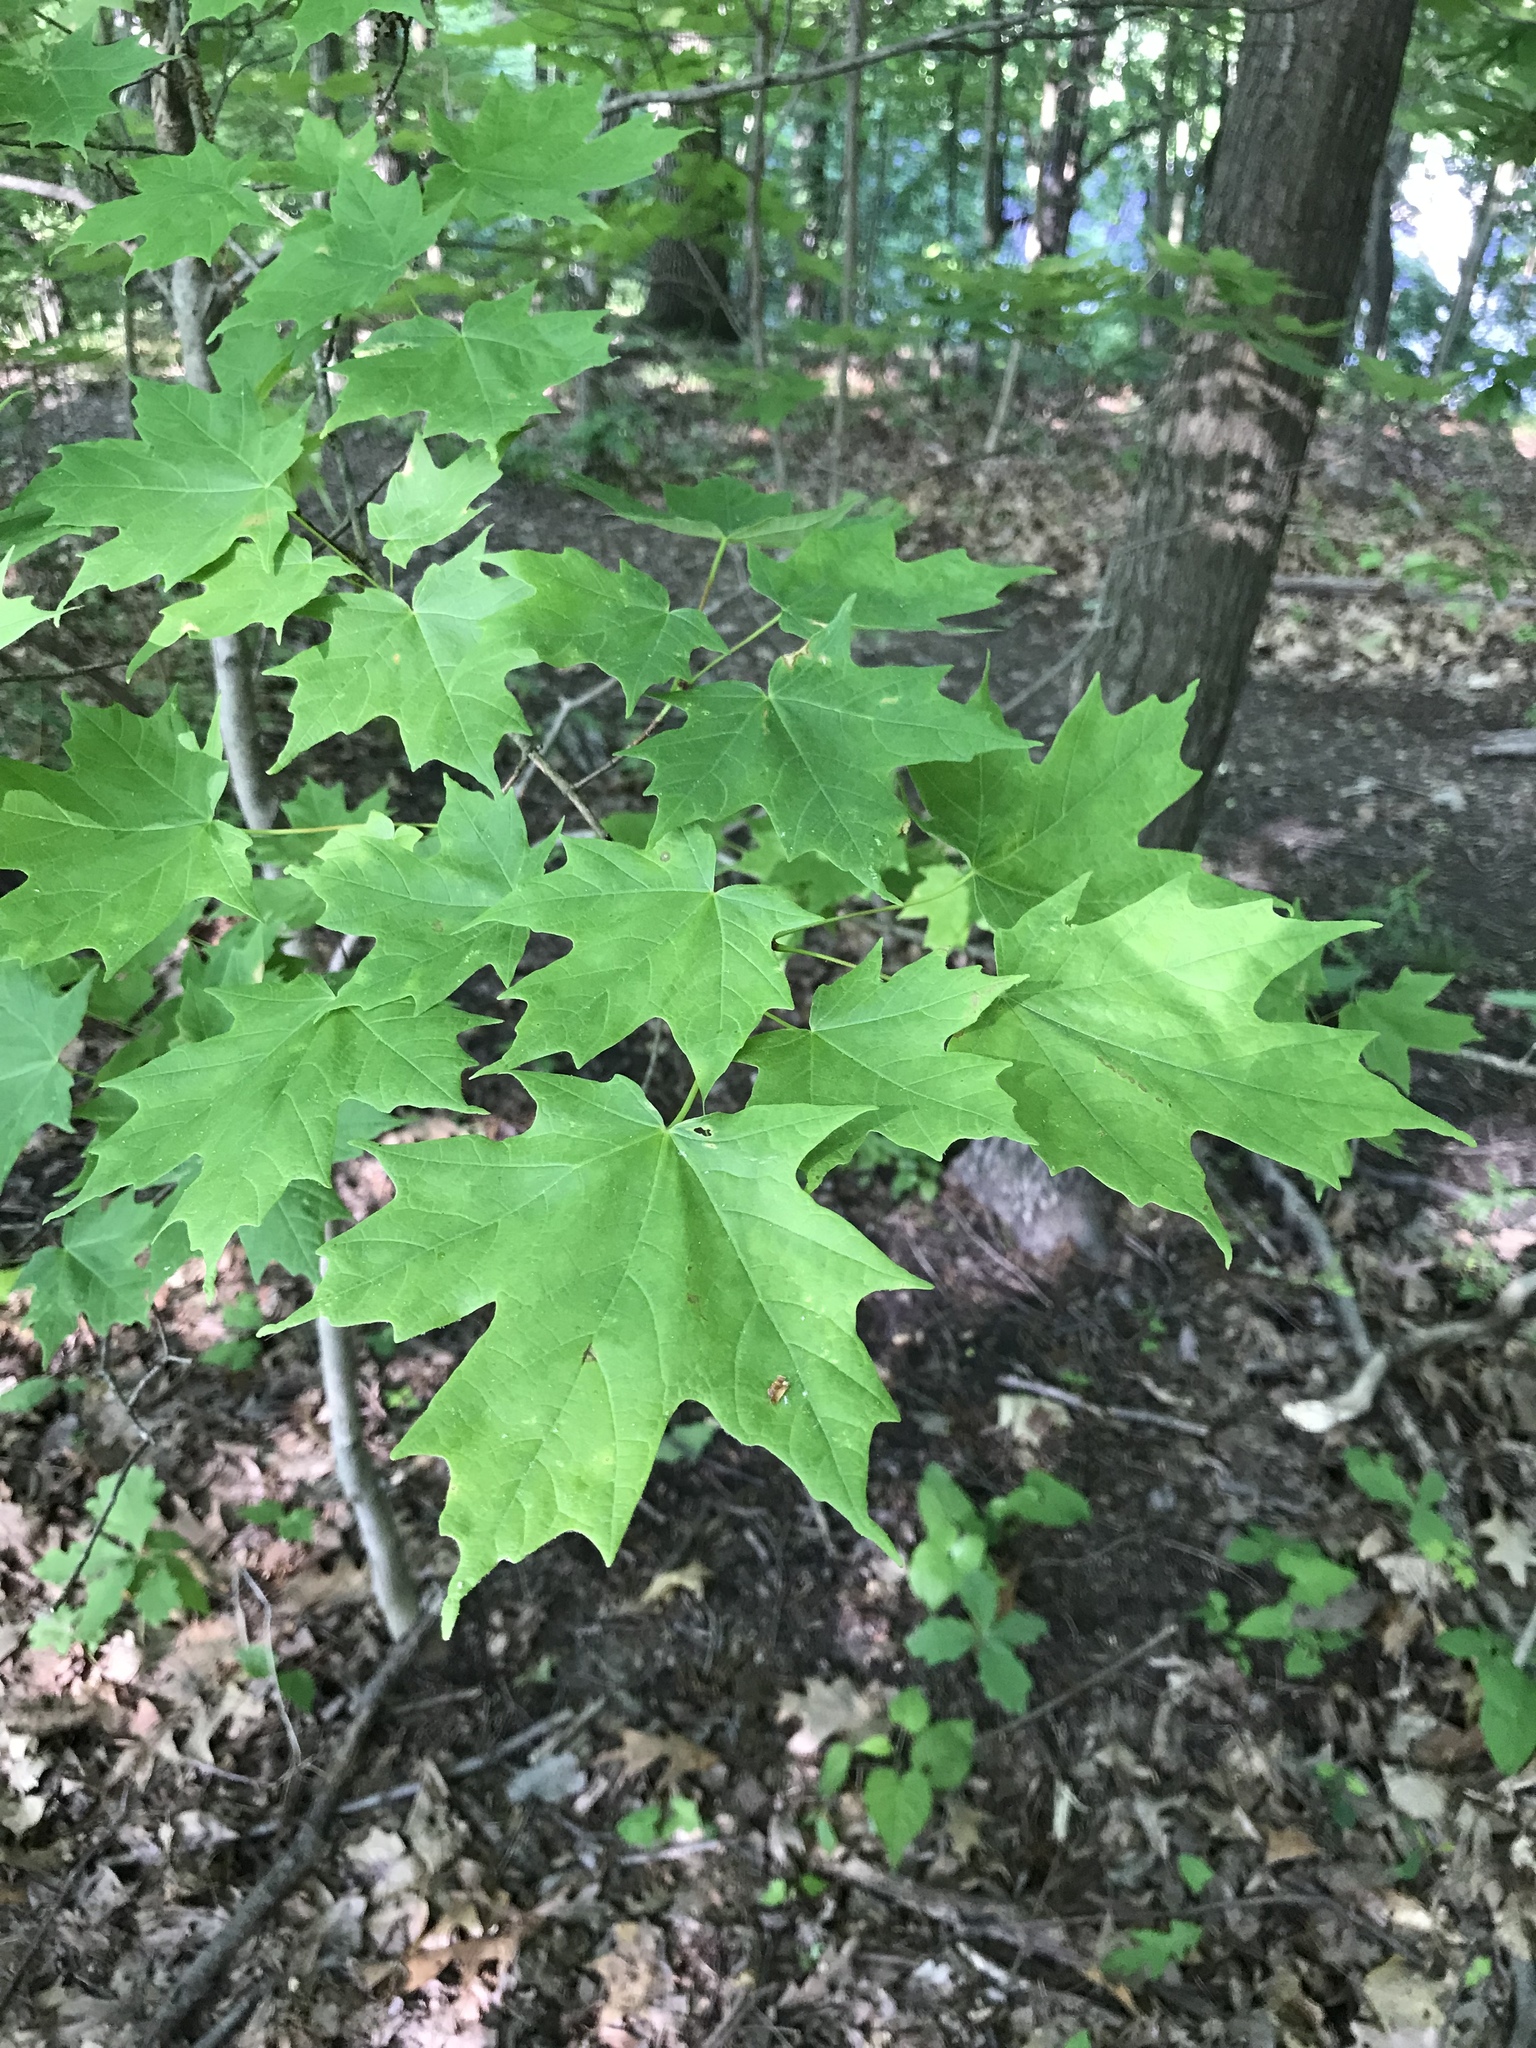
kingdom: Plantae
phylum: Tracheophyta
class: Magnoliopsida
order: Sapindales
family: Sapindaceae
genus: Acer
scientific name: Acer saccharum
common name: Sugar maple
